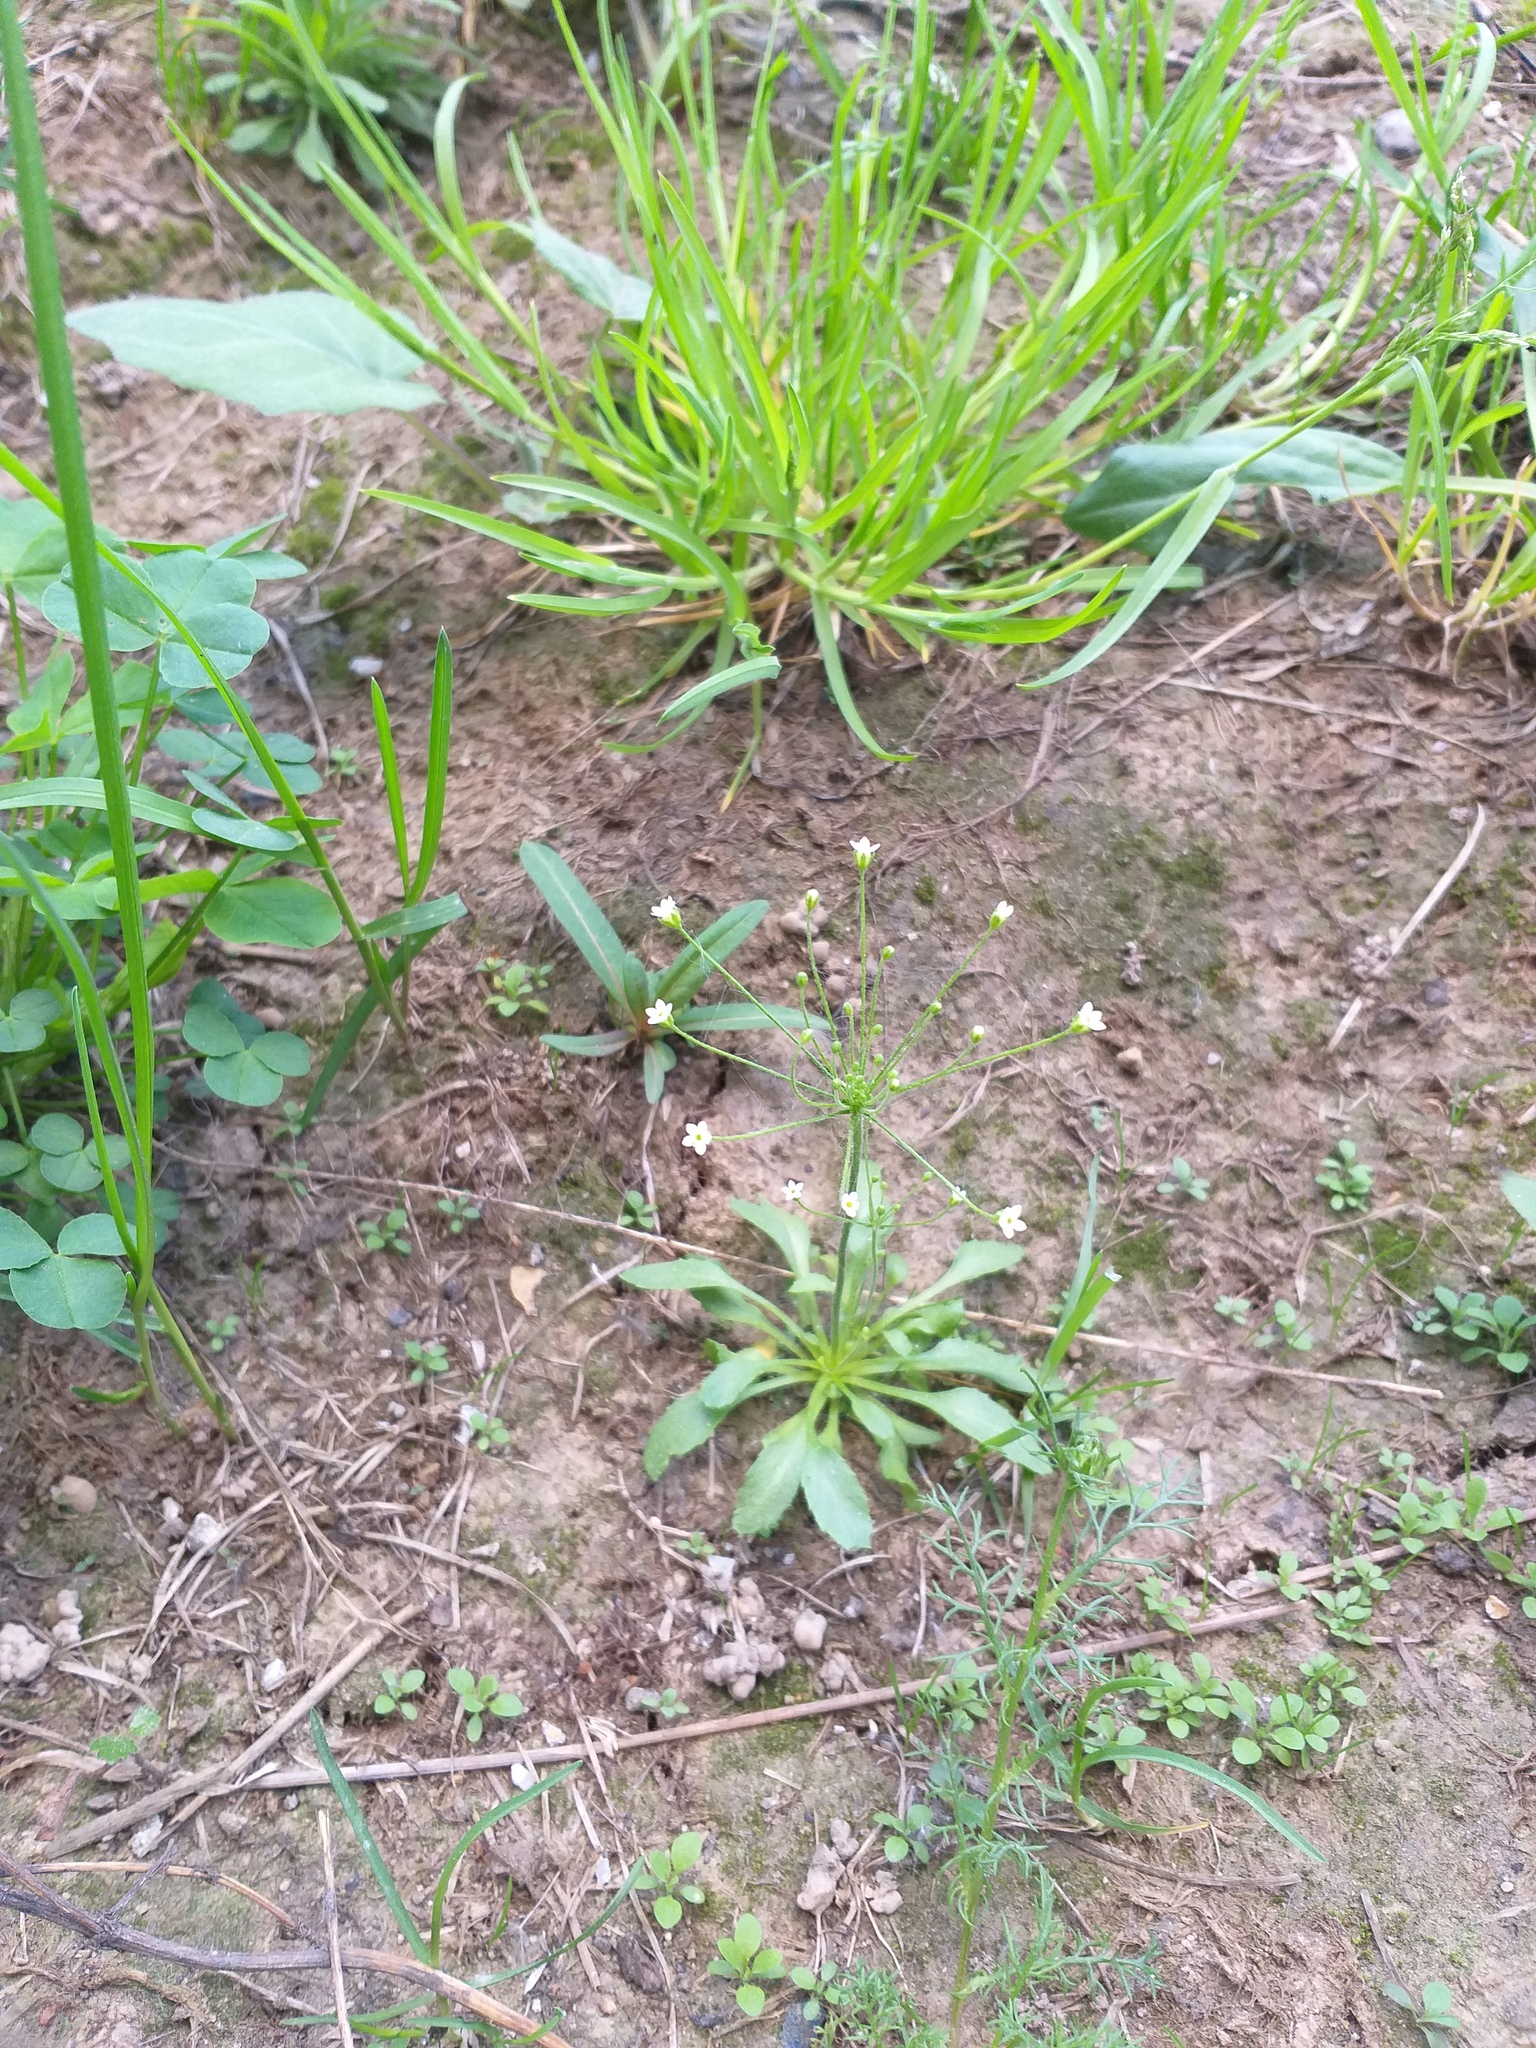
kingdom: Plantae
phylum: Tracheophyta
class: Magnoliopsida
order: Ericales
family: Primulaceae
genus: Androsace
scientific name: Androsace filiformis
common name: Filiform rock jasmine
